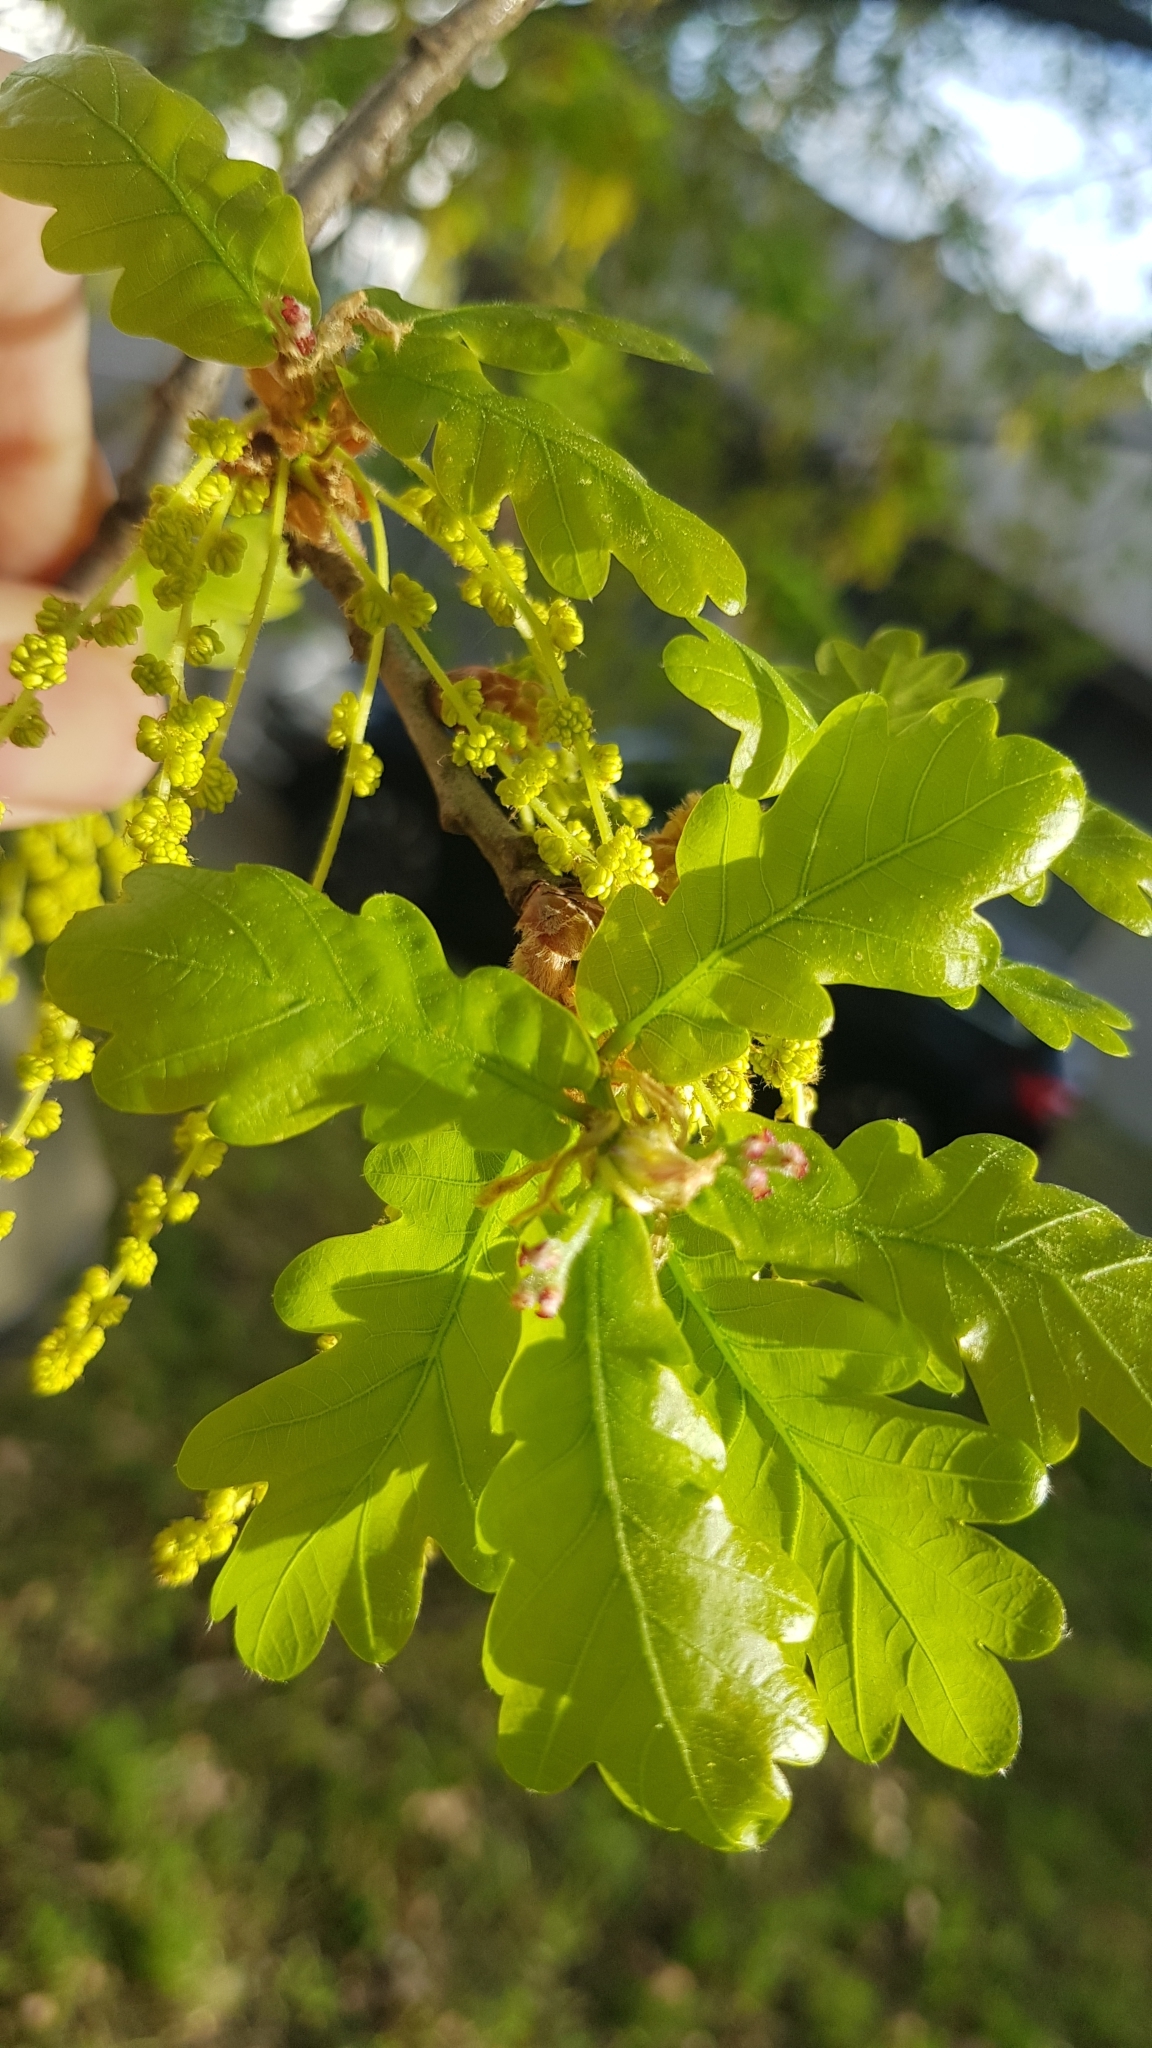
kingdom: Animalia
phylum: Arthropoda
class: Insecta
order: Hymenoptera
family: Cynipidae
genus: Biorhiza
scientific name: Biorhiza pallida
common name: Oak apple
